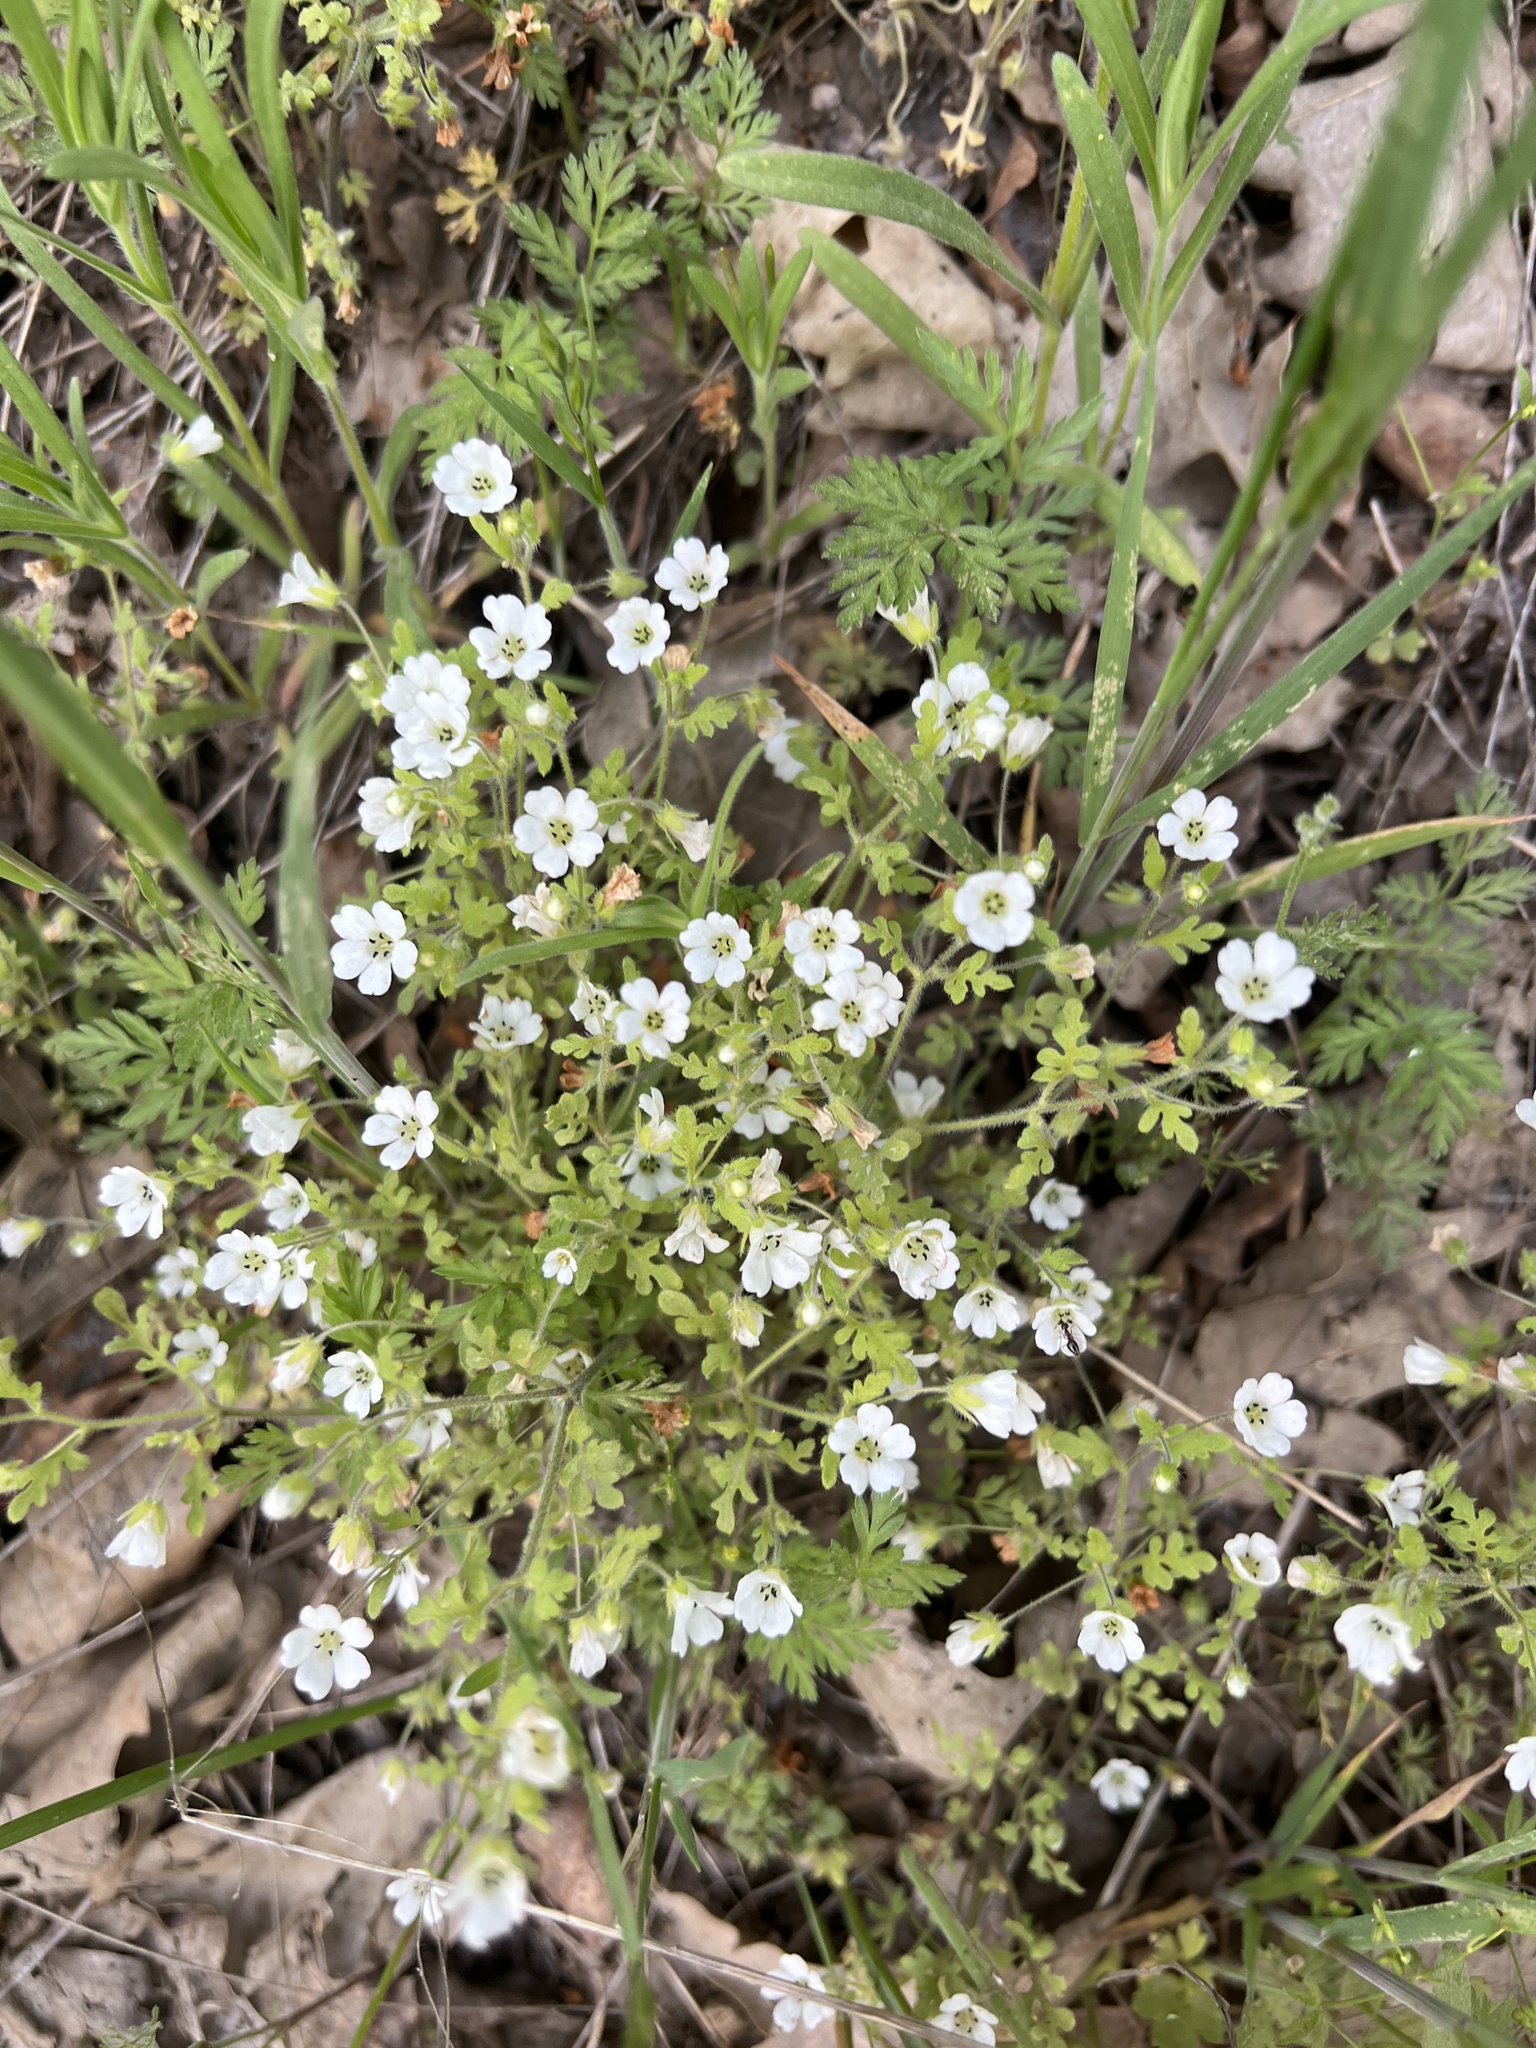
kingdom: Plantae
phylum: Tracheophyta
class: Magnoliopsida
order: Boraginales
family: Hydrophyllaceae
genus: Nemophila
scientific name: Nemophila heterophylla
